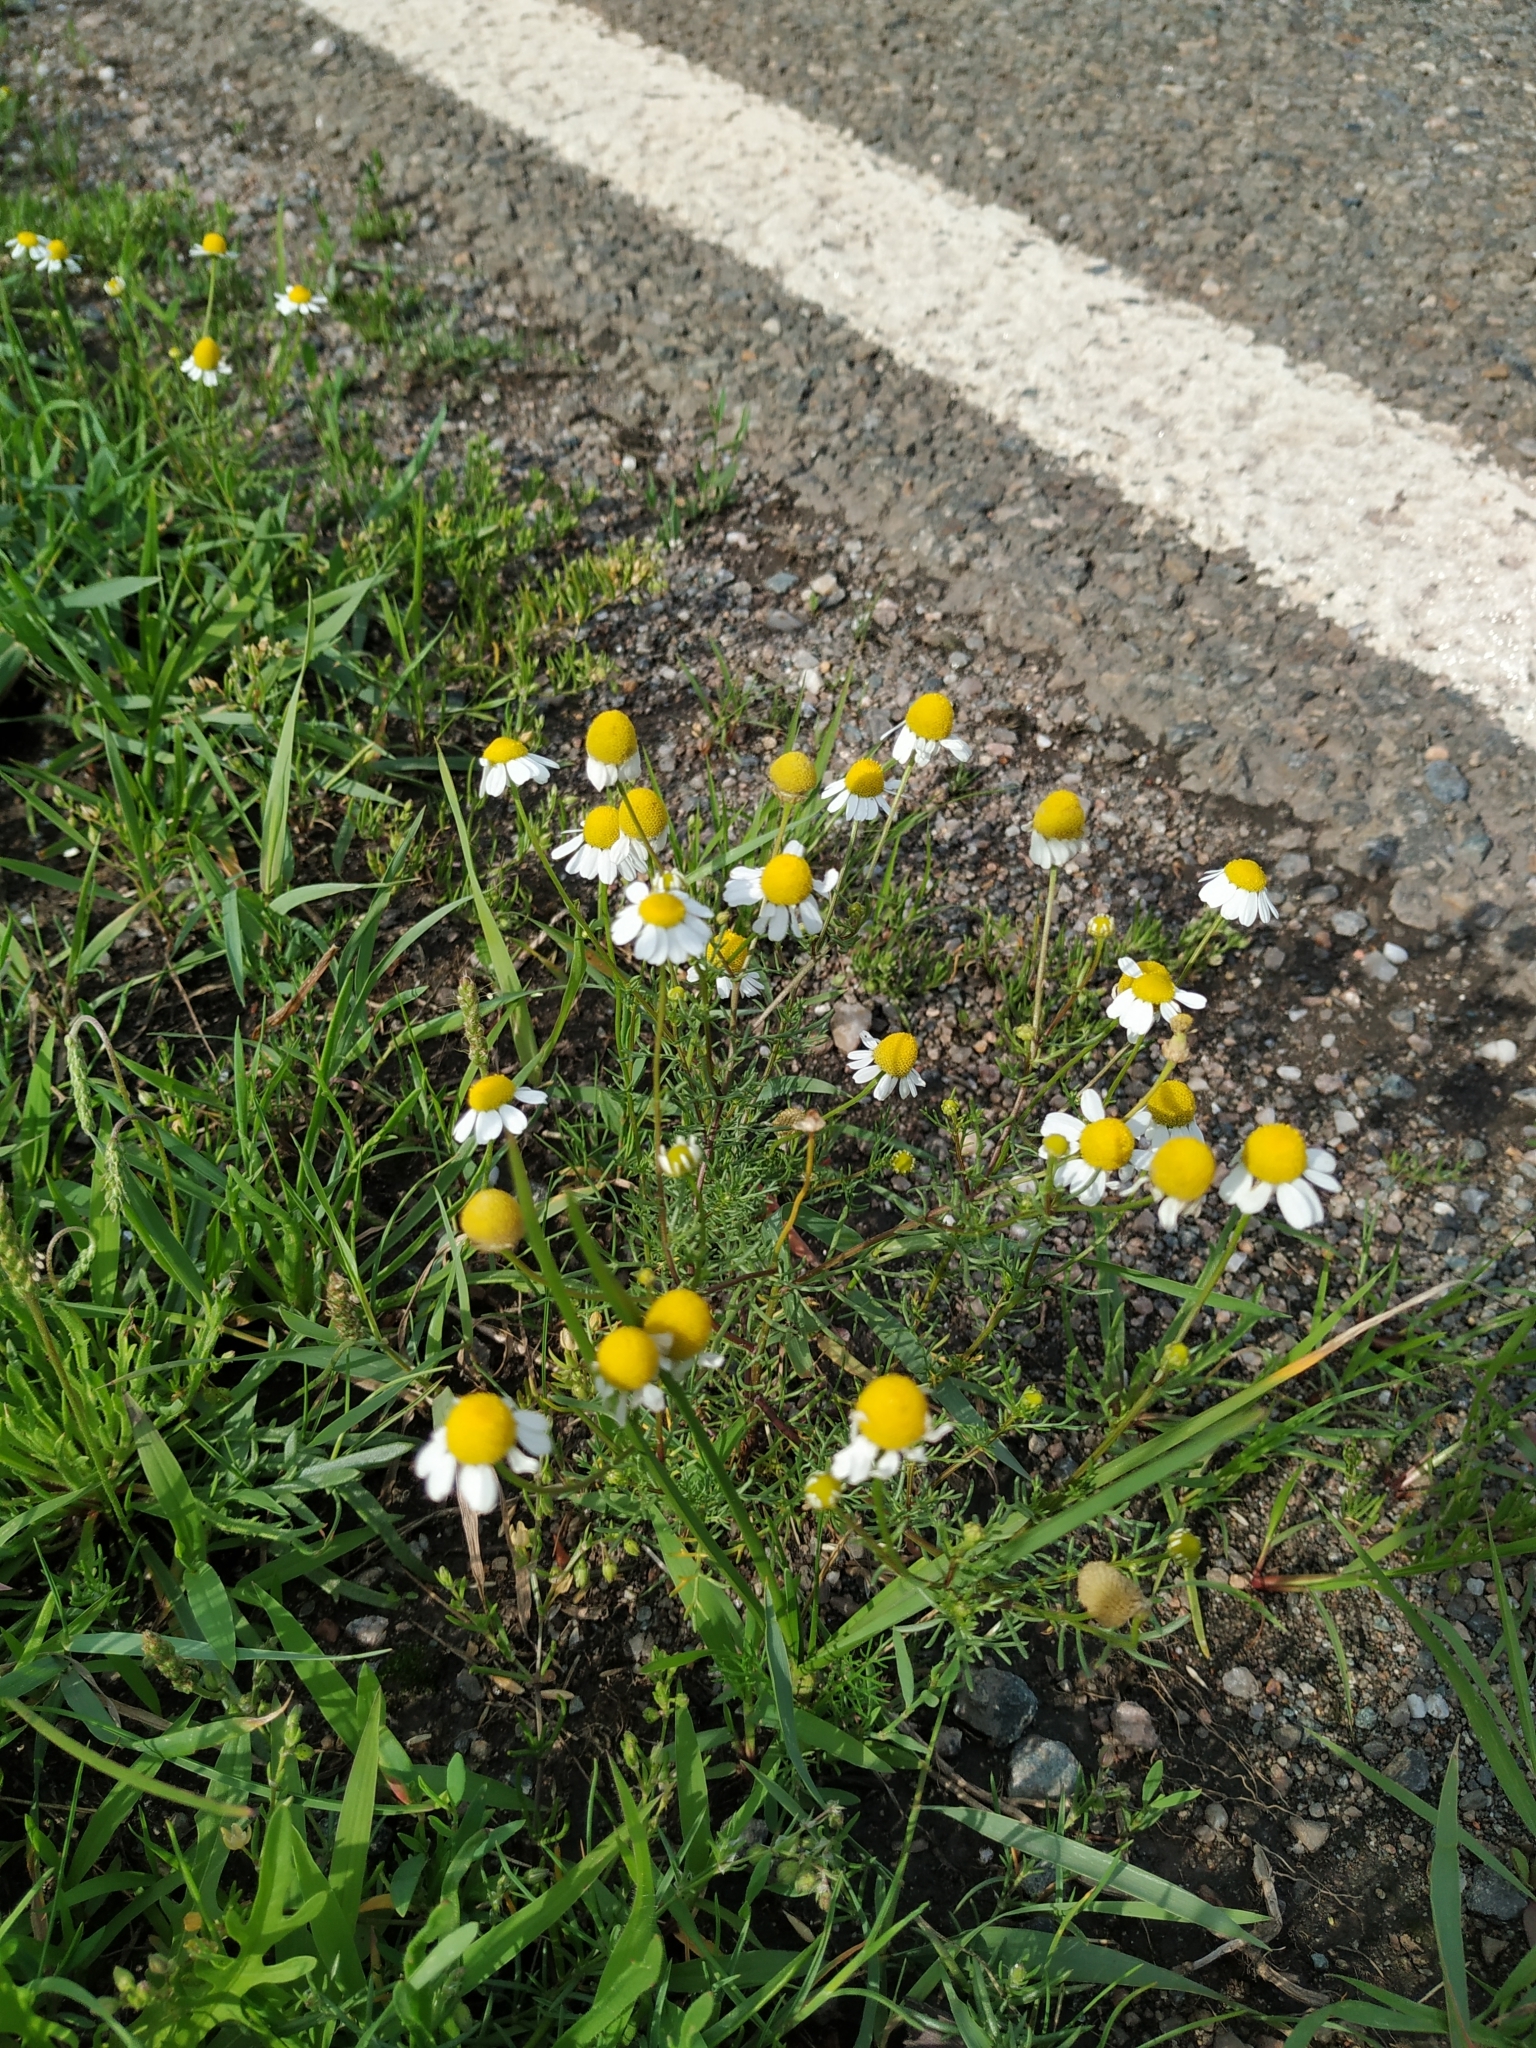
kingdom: Plantae
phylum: Tracheophyta
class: Magnoliopsida
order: Asterales
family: Asteraceae
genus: Matricaria
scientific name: Matricaria chamomilla
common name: Scented mayweed
